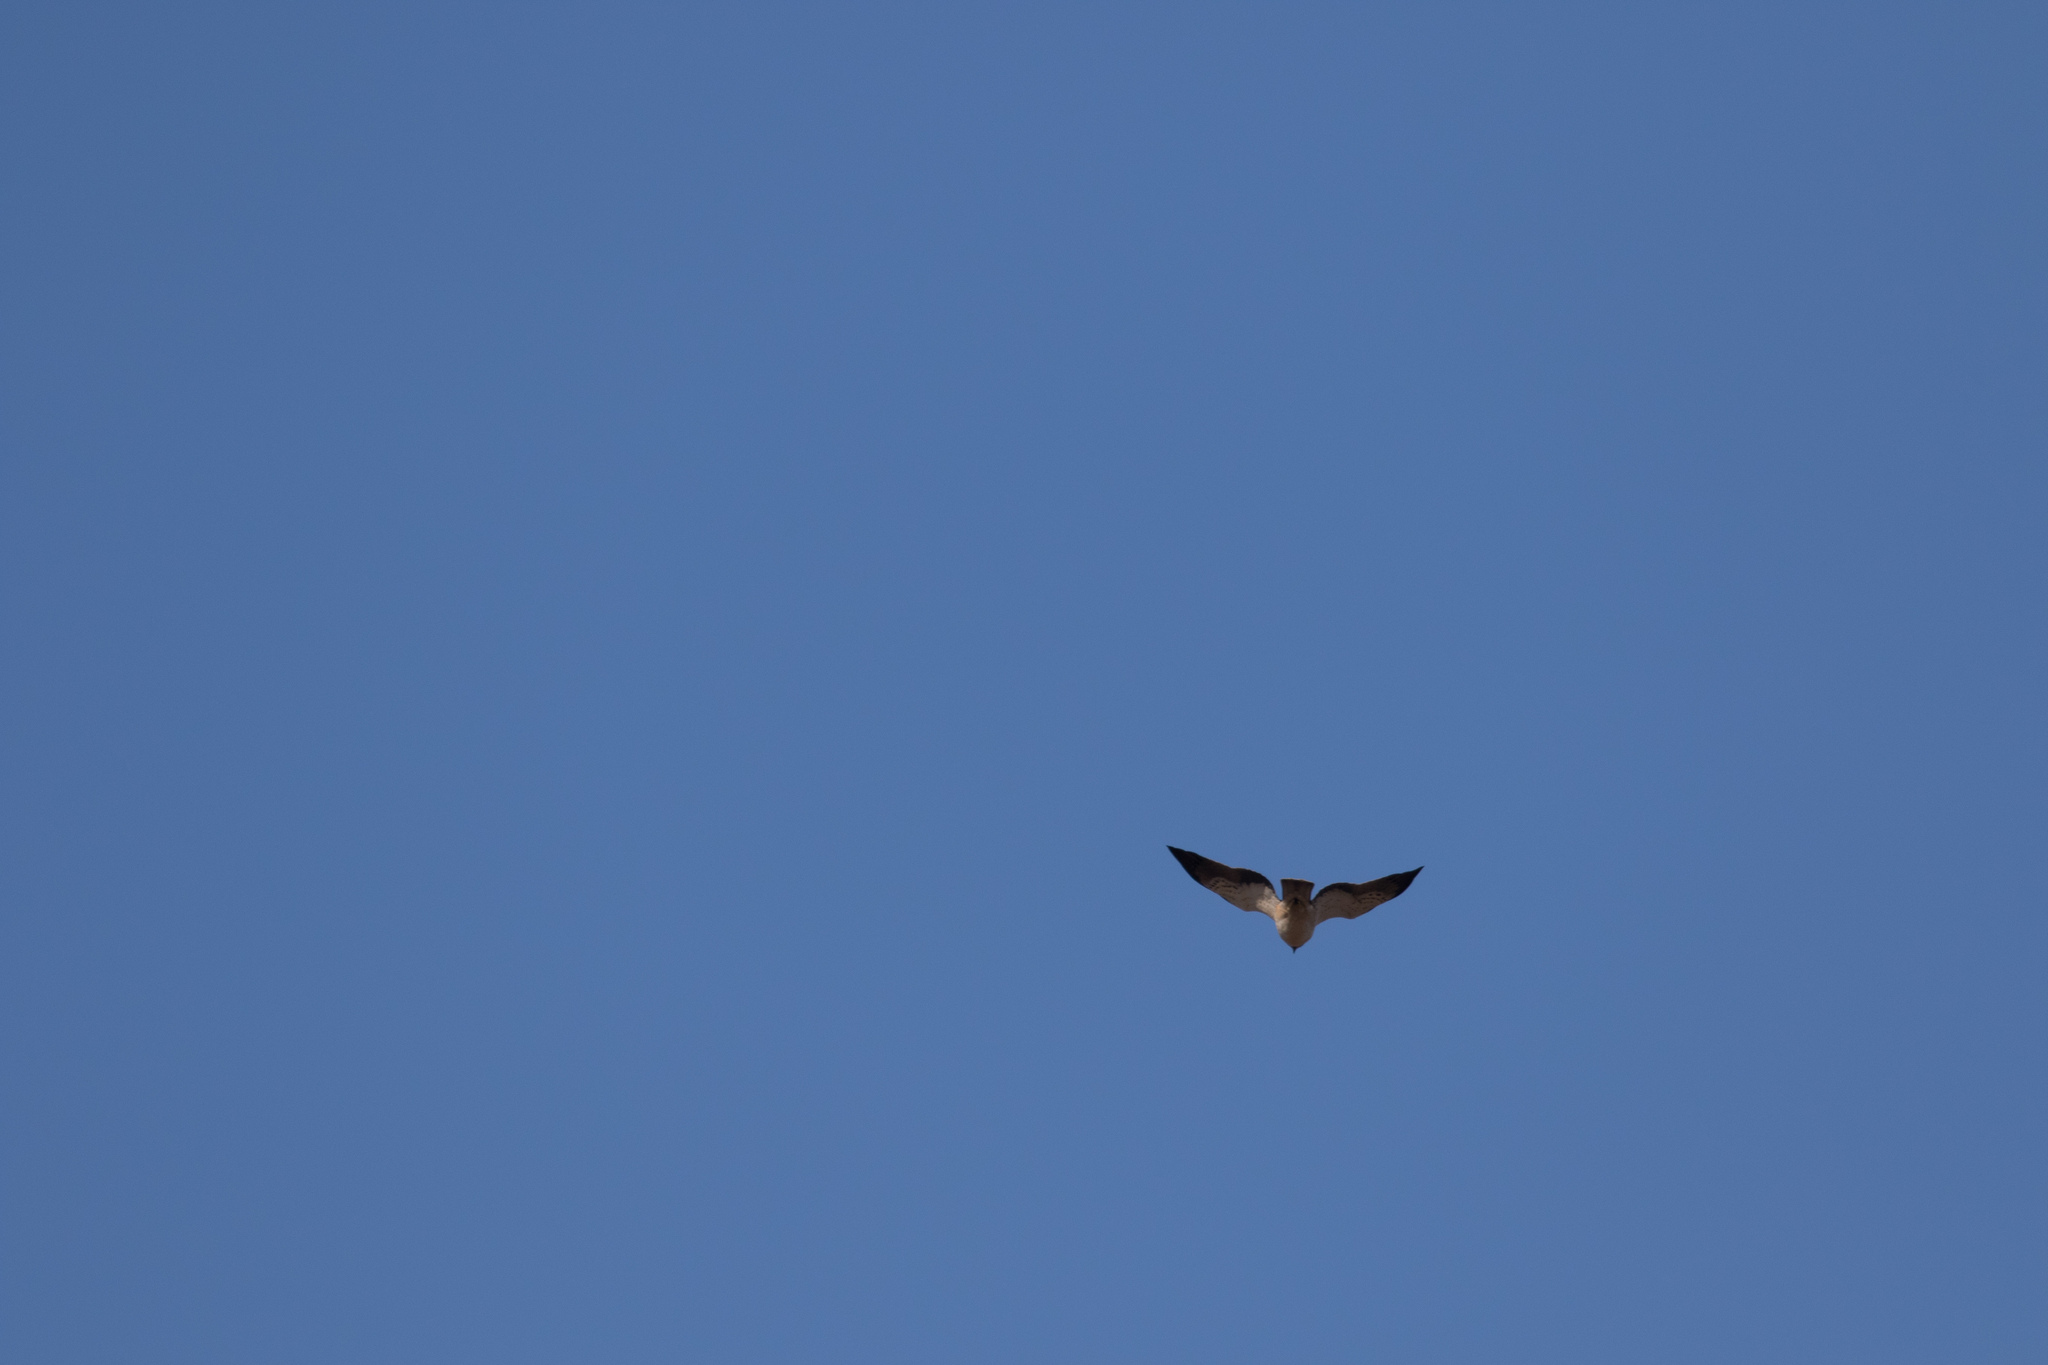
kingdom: Animalia
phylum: Chordata
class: Aves
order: Accipitriformes
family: Accipitridae
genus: Hieraaetus
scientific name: Hieraaetus pennatus
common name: Booted eagle
